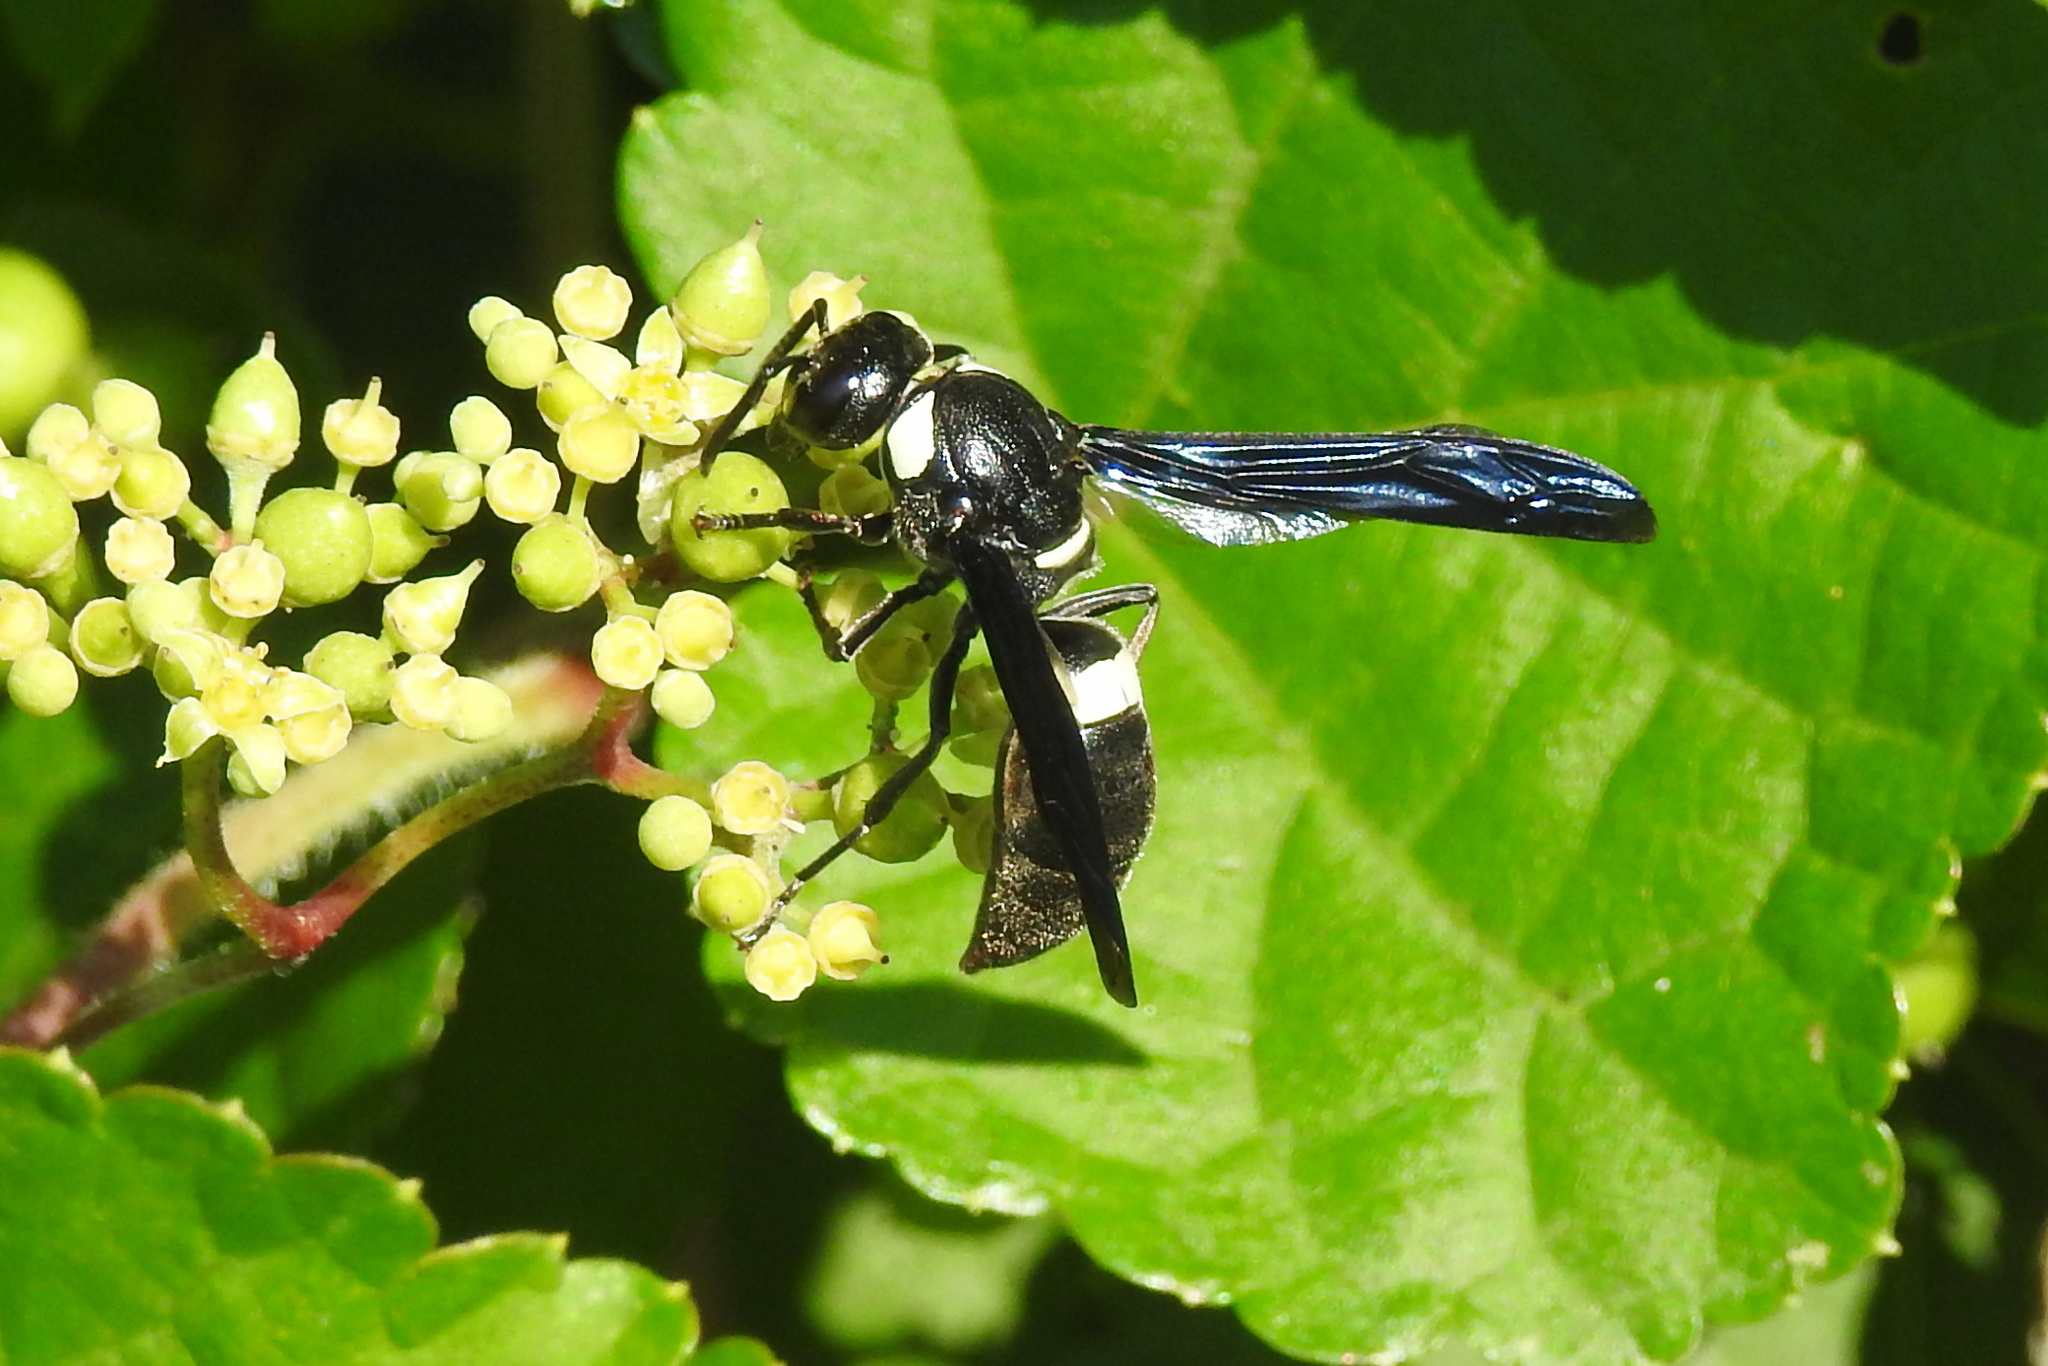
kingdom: Animalia
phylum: Arthropoda
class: Insecta
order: Hymenoptera
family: Eumenidae
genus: Monobia
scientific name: Monobia quadridens
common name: Four-toothed mason wasp
